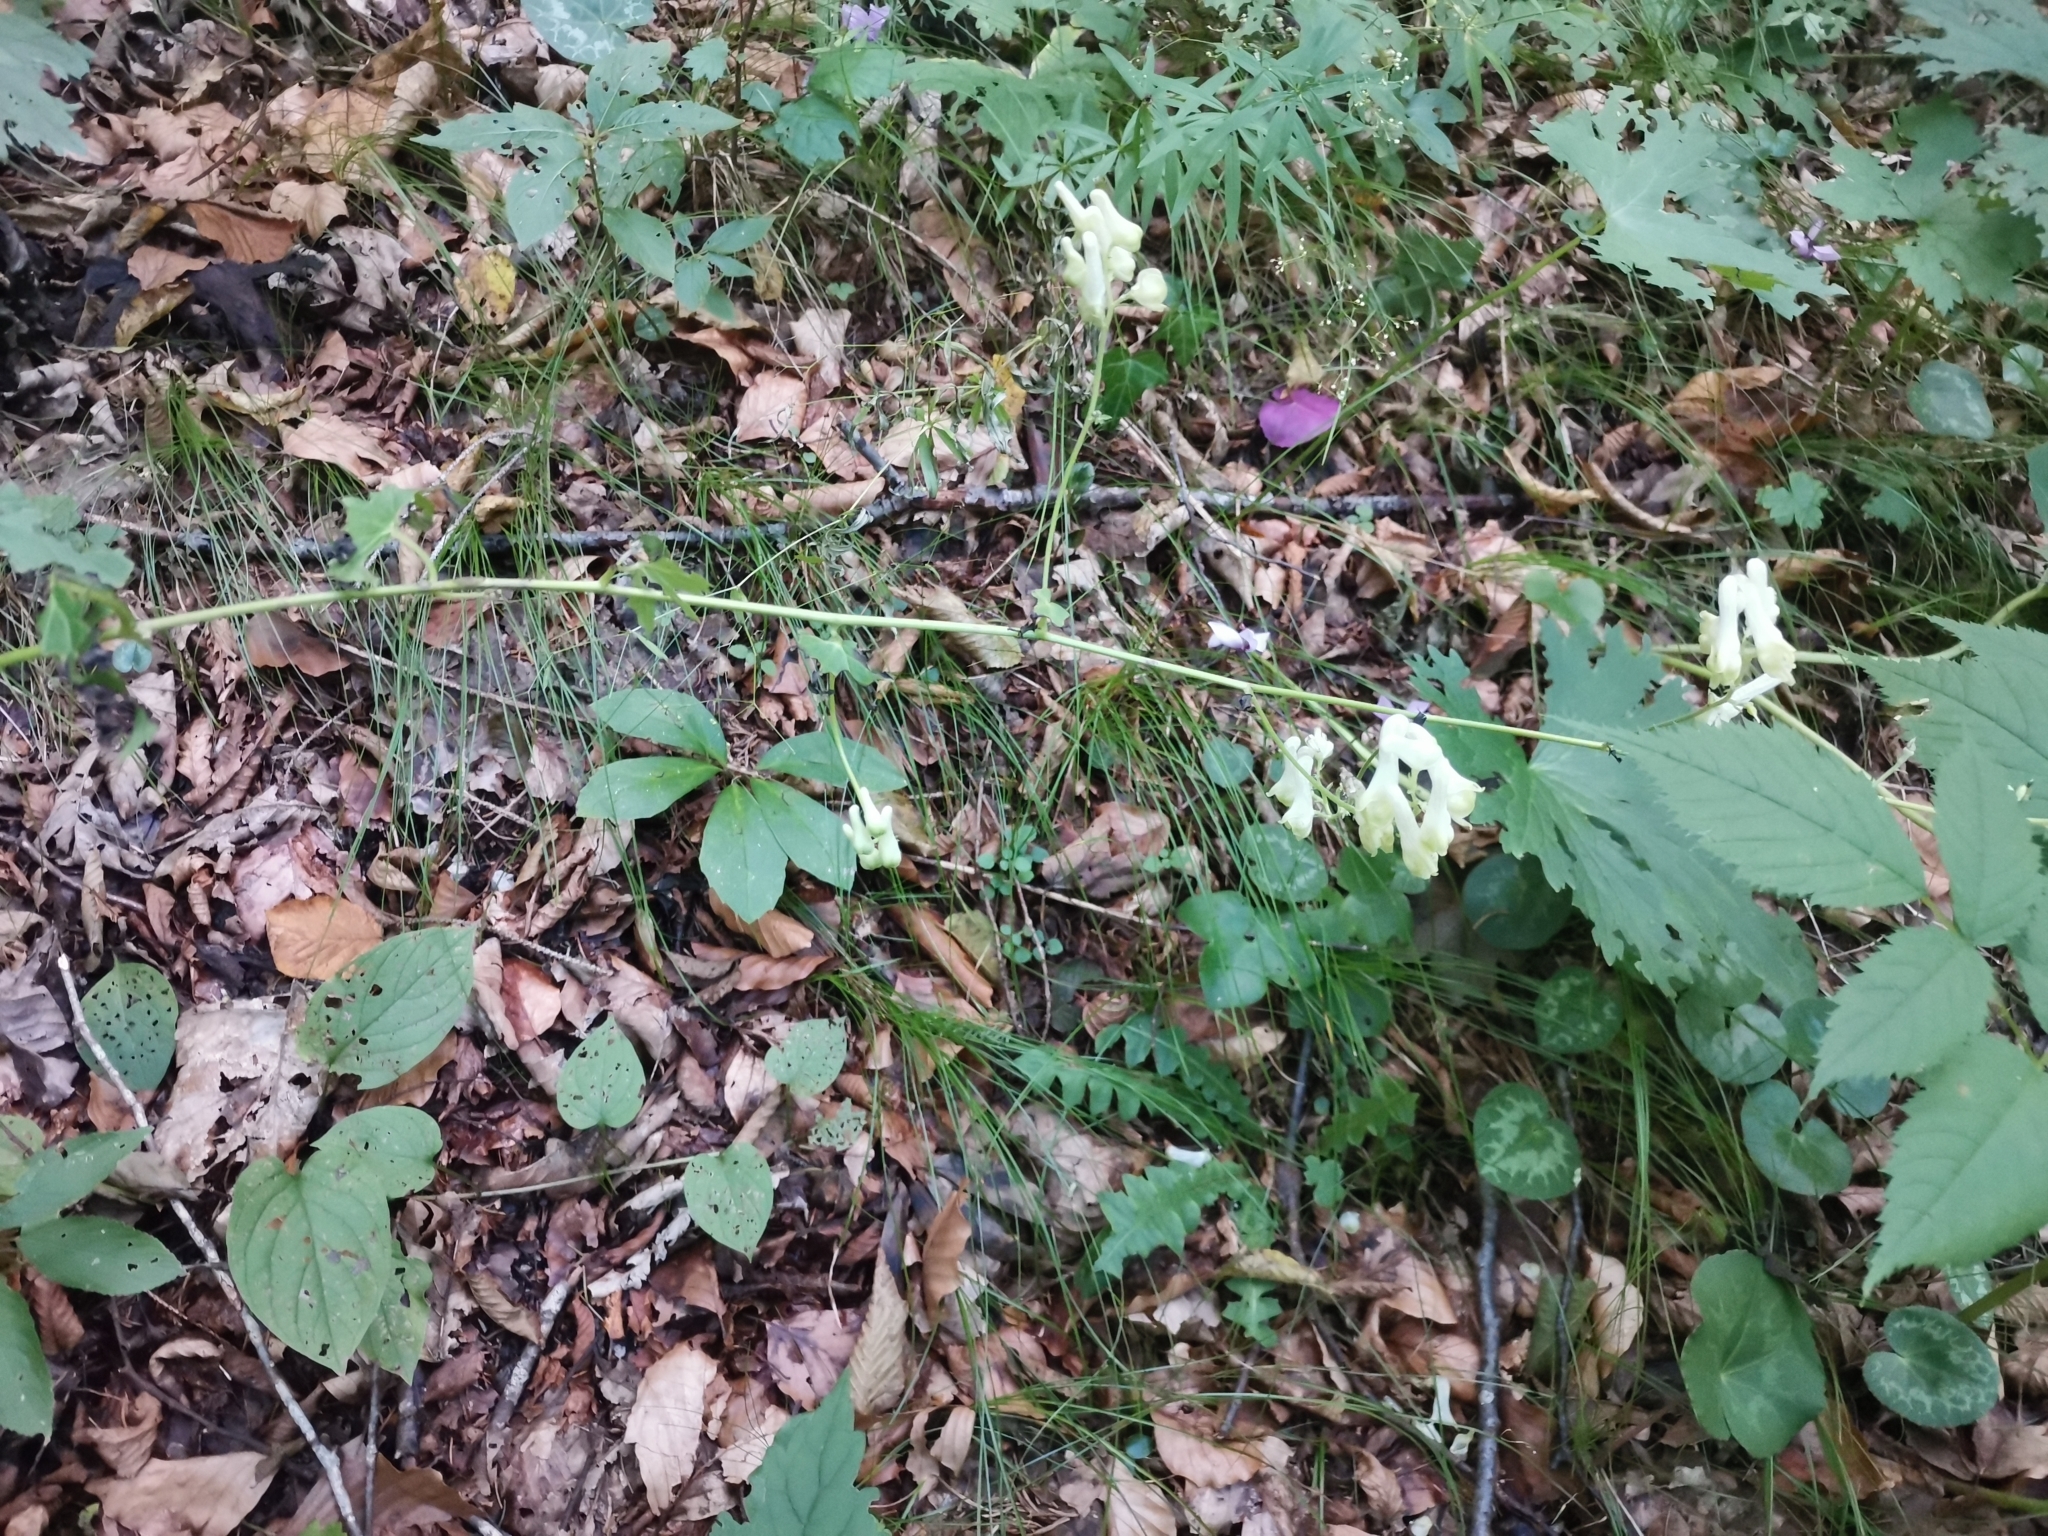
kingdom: Plantae
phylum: Tracheophyta
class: Magnoliopsida
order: Ranunculales
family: Ranunculaceae
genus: Aconitum
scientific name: Aconitum lycoctonum
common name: Wolf's-bane
